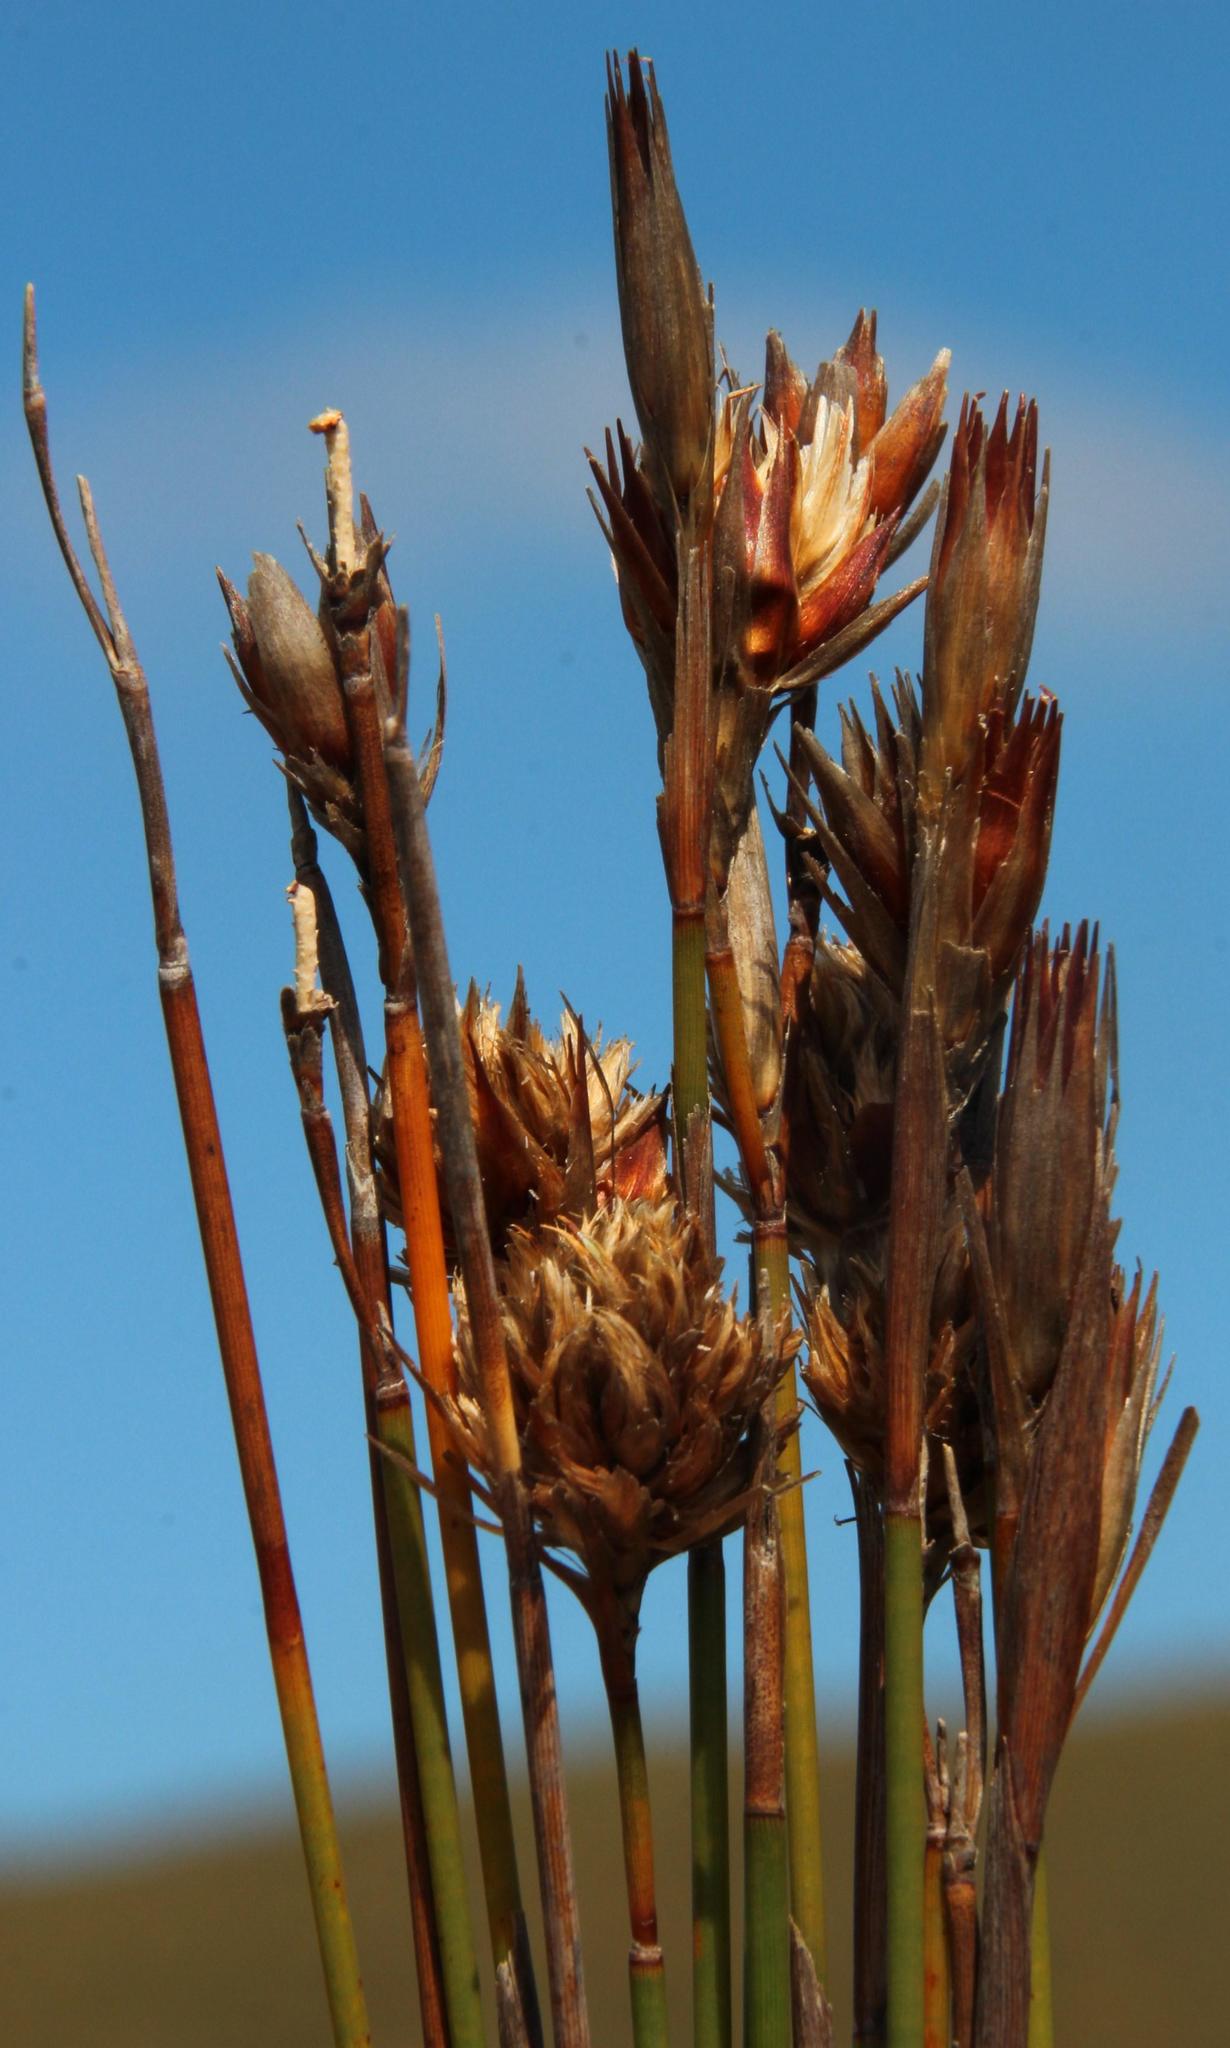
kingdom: Plantae
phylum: Tracheophyta
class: Liliopsida
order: Poales
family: Restionaceae
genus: Hypodiscus
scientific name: Hypodiscus argenteus
